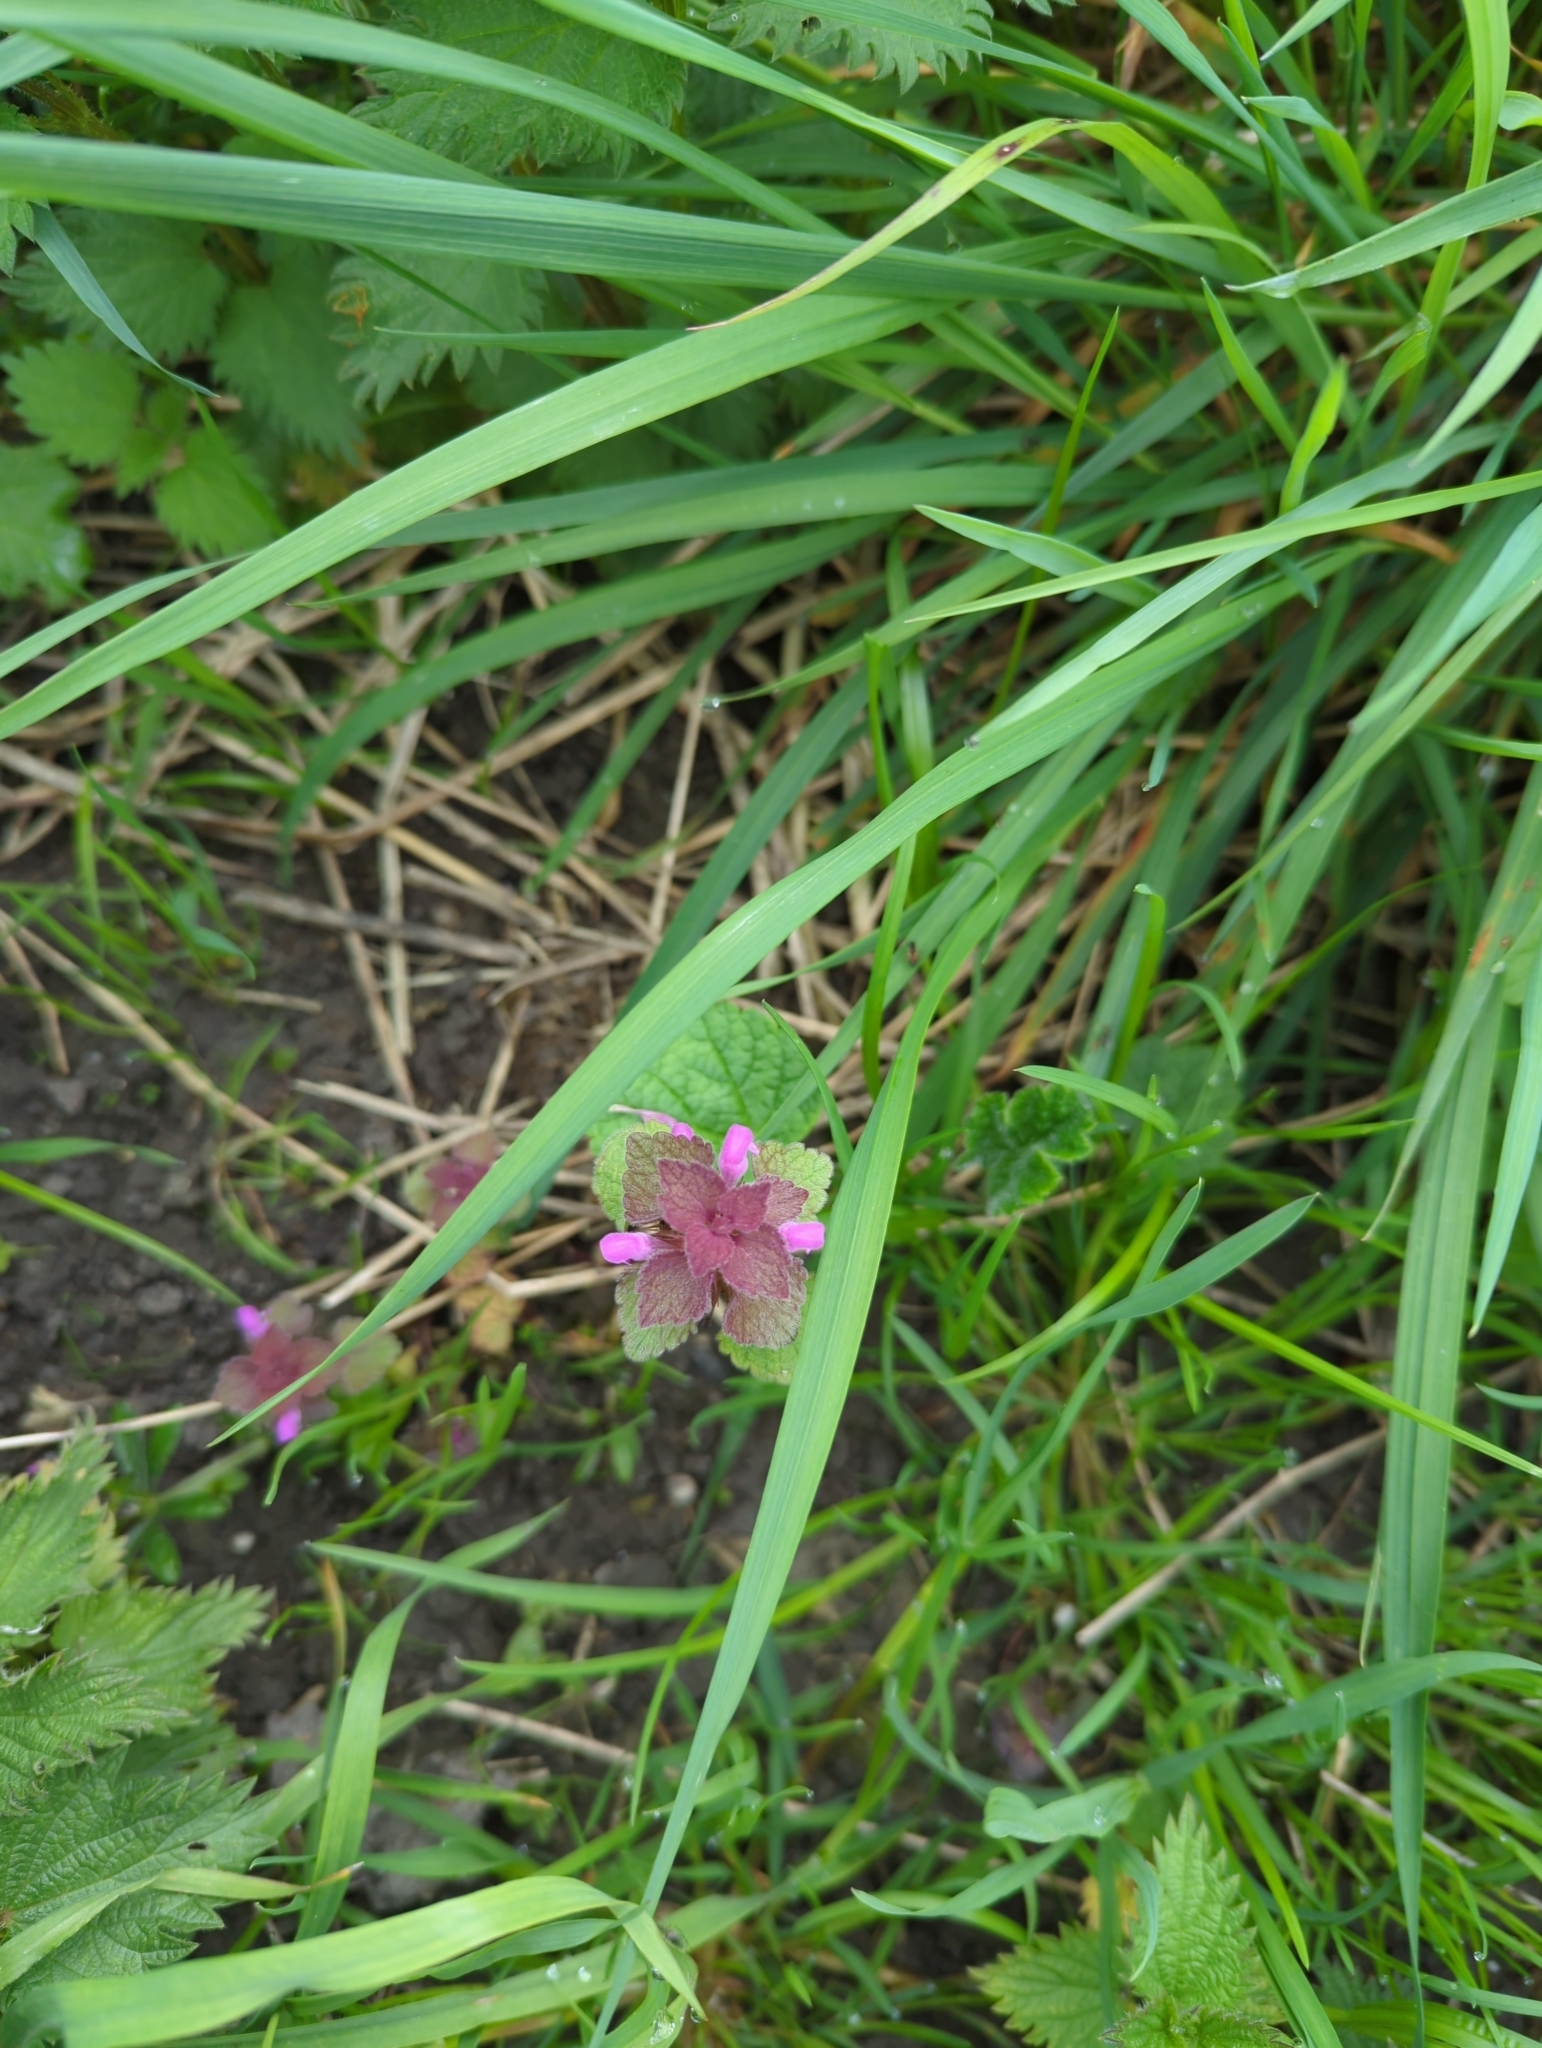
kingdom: Plantae
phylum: Tracheophyta
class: Magnoliopsida
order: Lamiales
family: Lamiaceae
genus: Lamium
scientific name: Lamium purpureum
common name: Red dead-nettle
